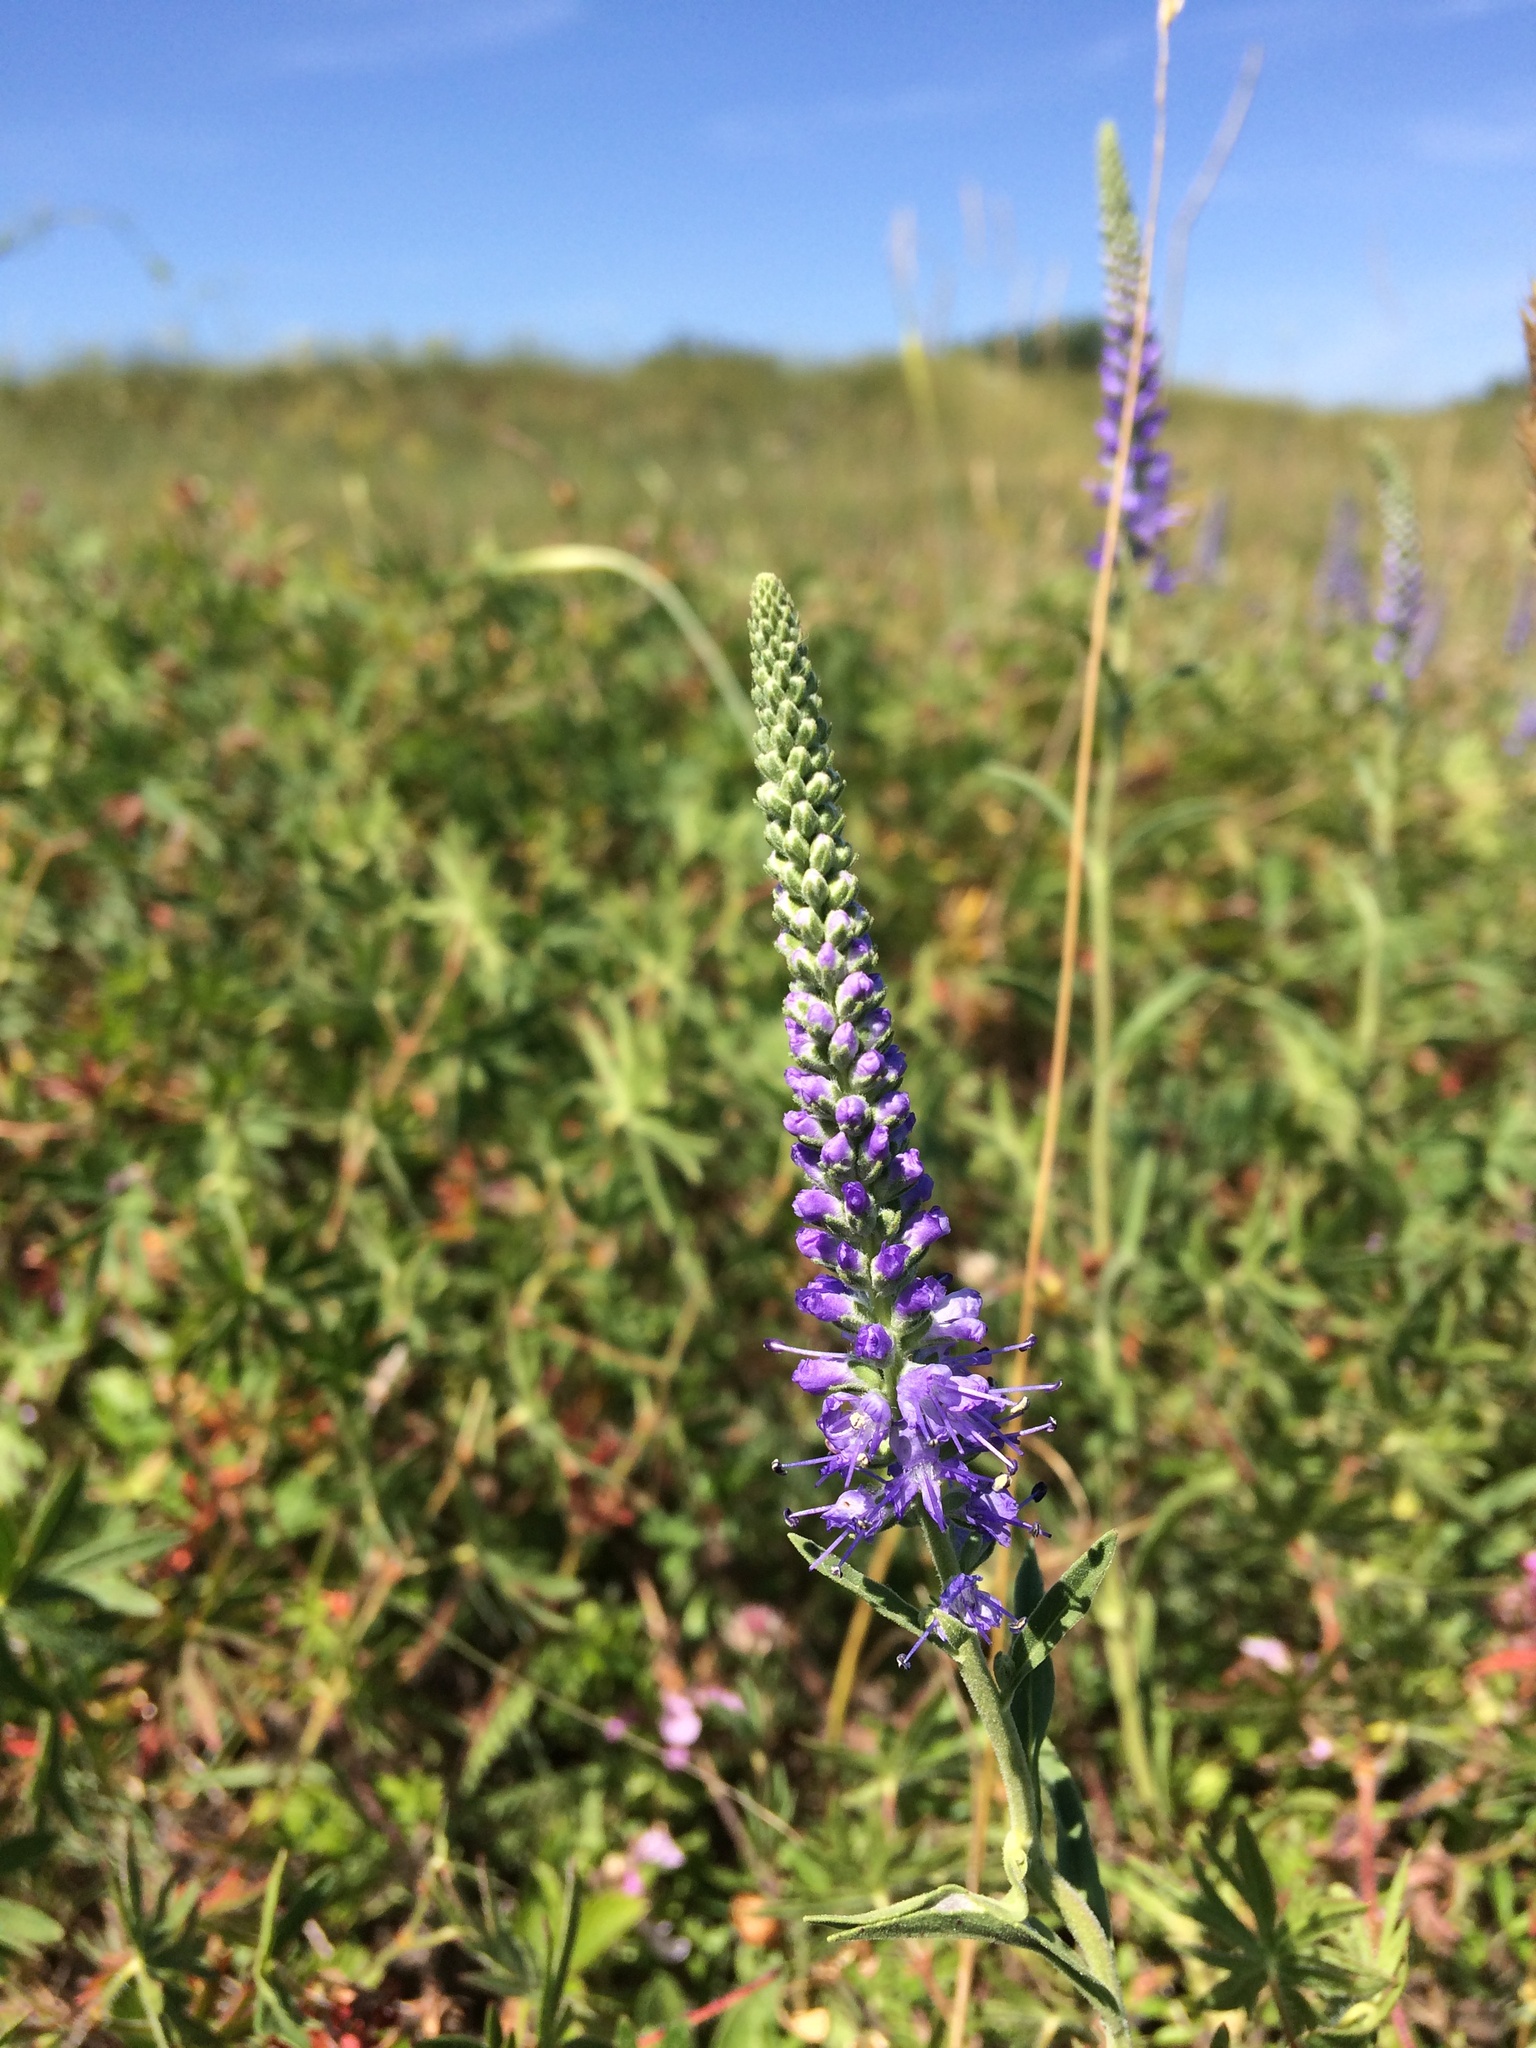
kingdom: Plantae
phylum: Tracheophyta
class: Magnoliopsida
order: Lamiales
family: Plantaginaceae
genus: Veronica
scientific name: Veronica spicata
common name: Spiked speedwell
